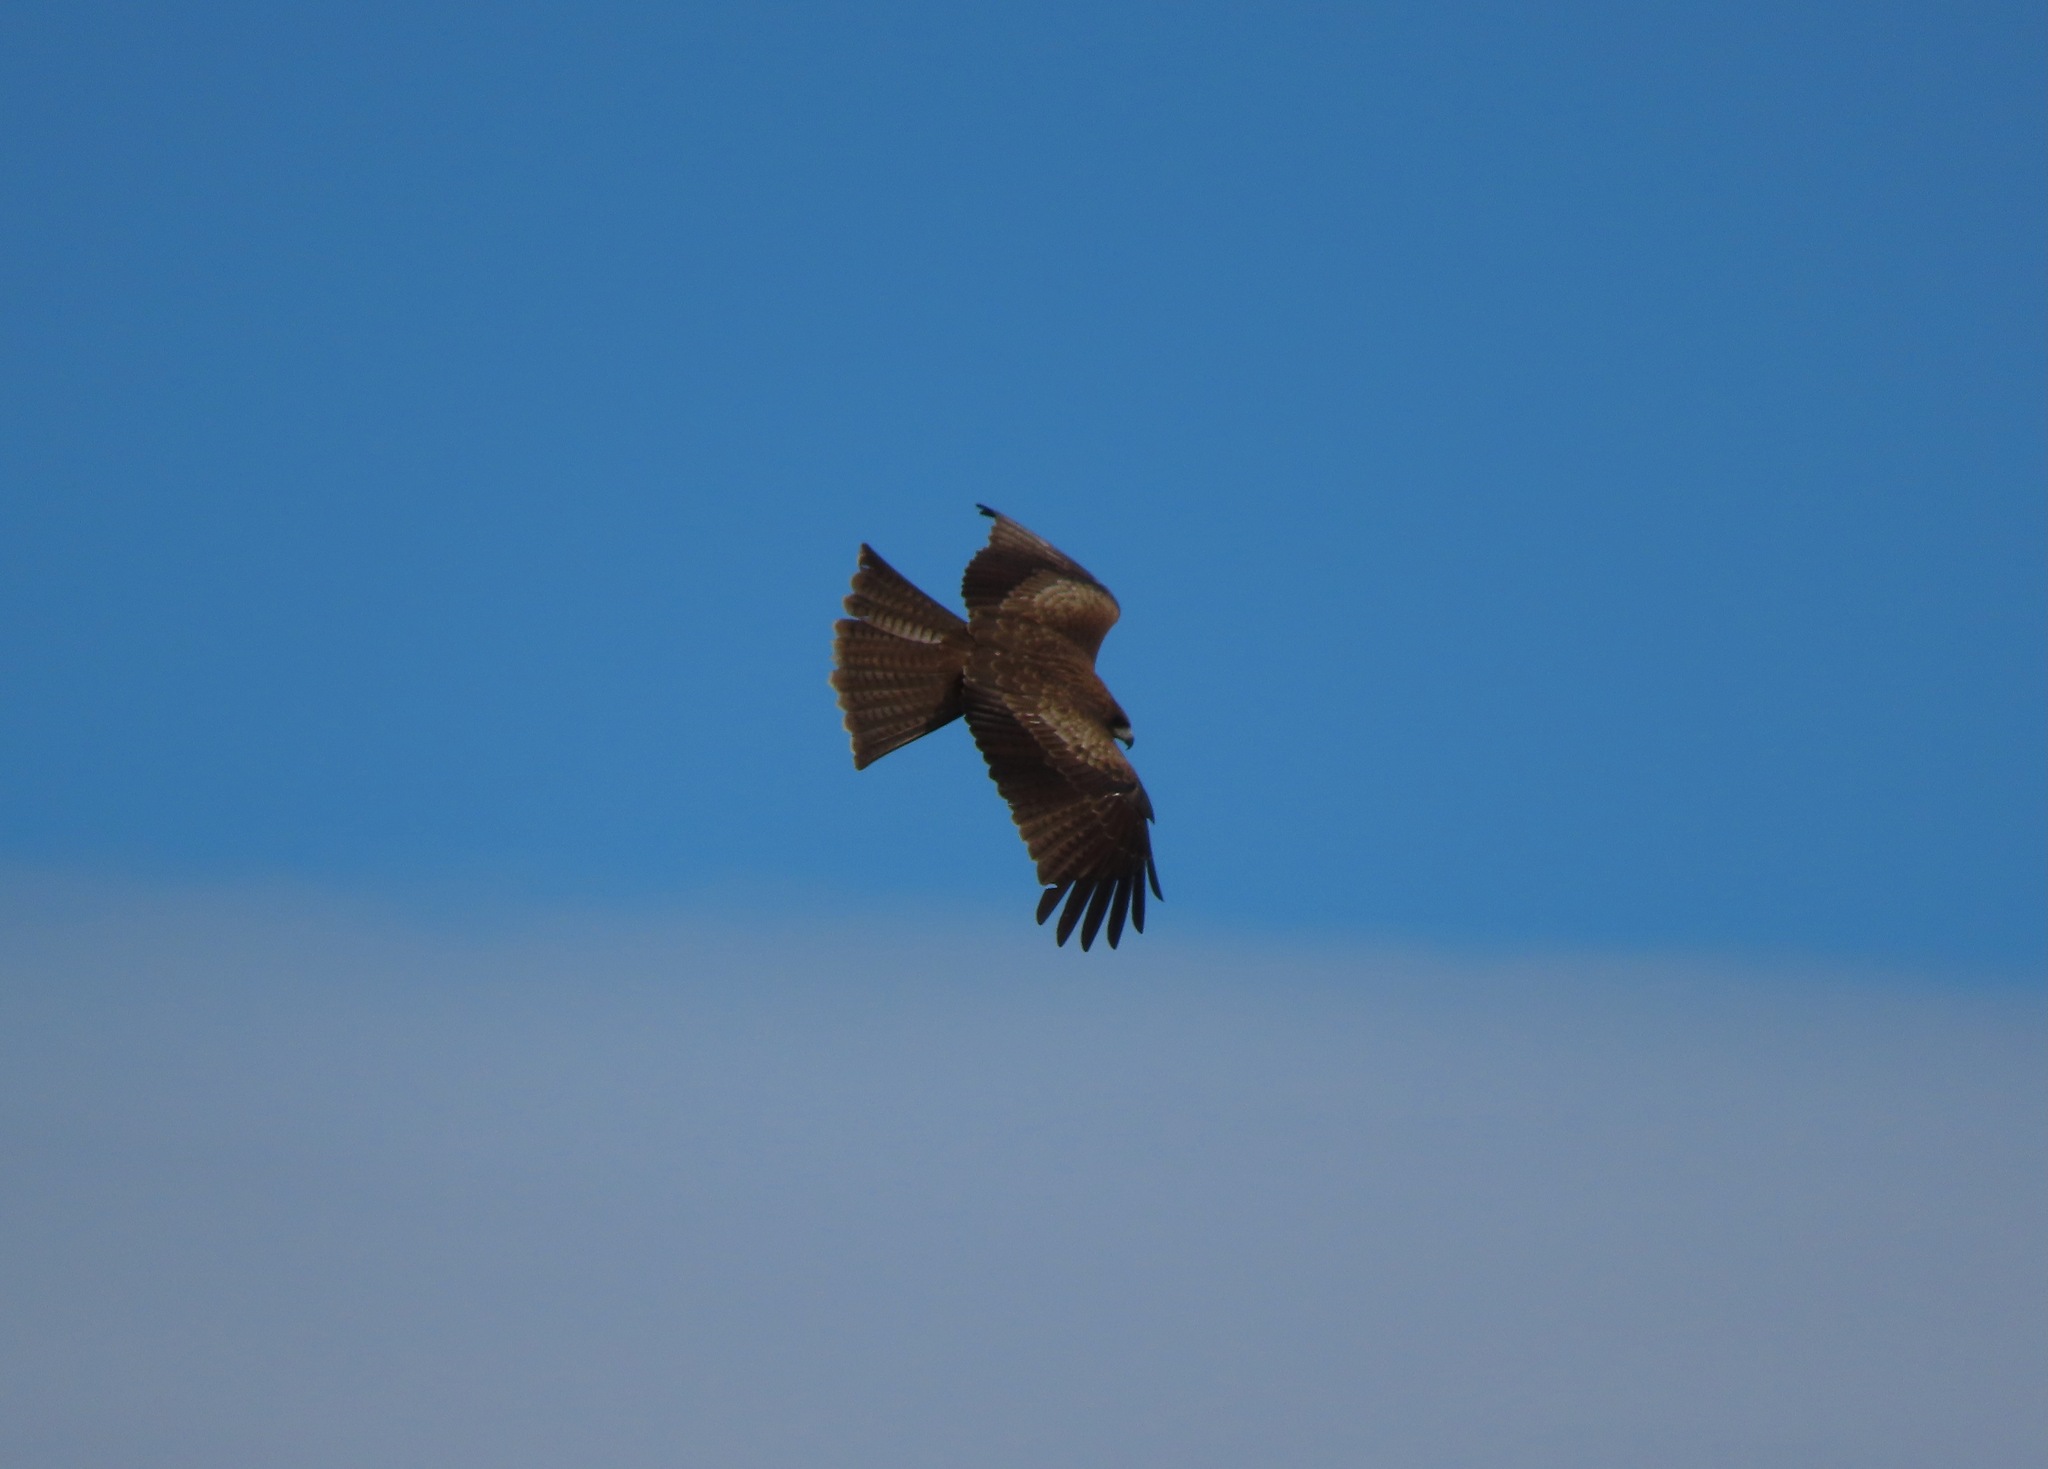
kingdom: Animalia
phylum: Chordata
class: Aves
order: Accipitriformes
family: Accipitridae
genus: Milvus
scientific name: Milvus migrans
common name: Black kite
